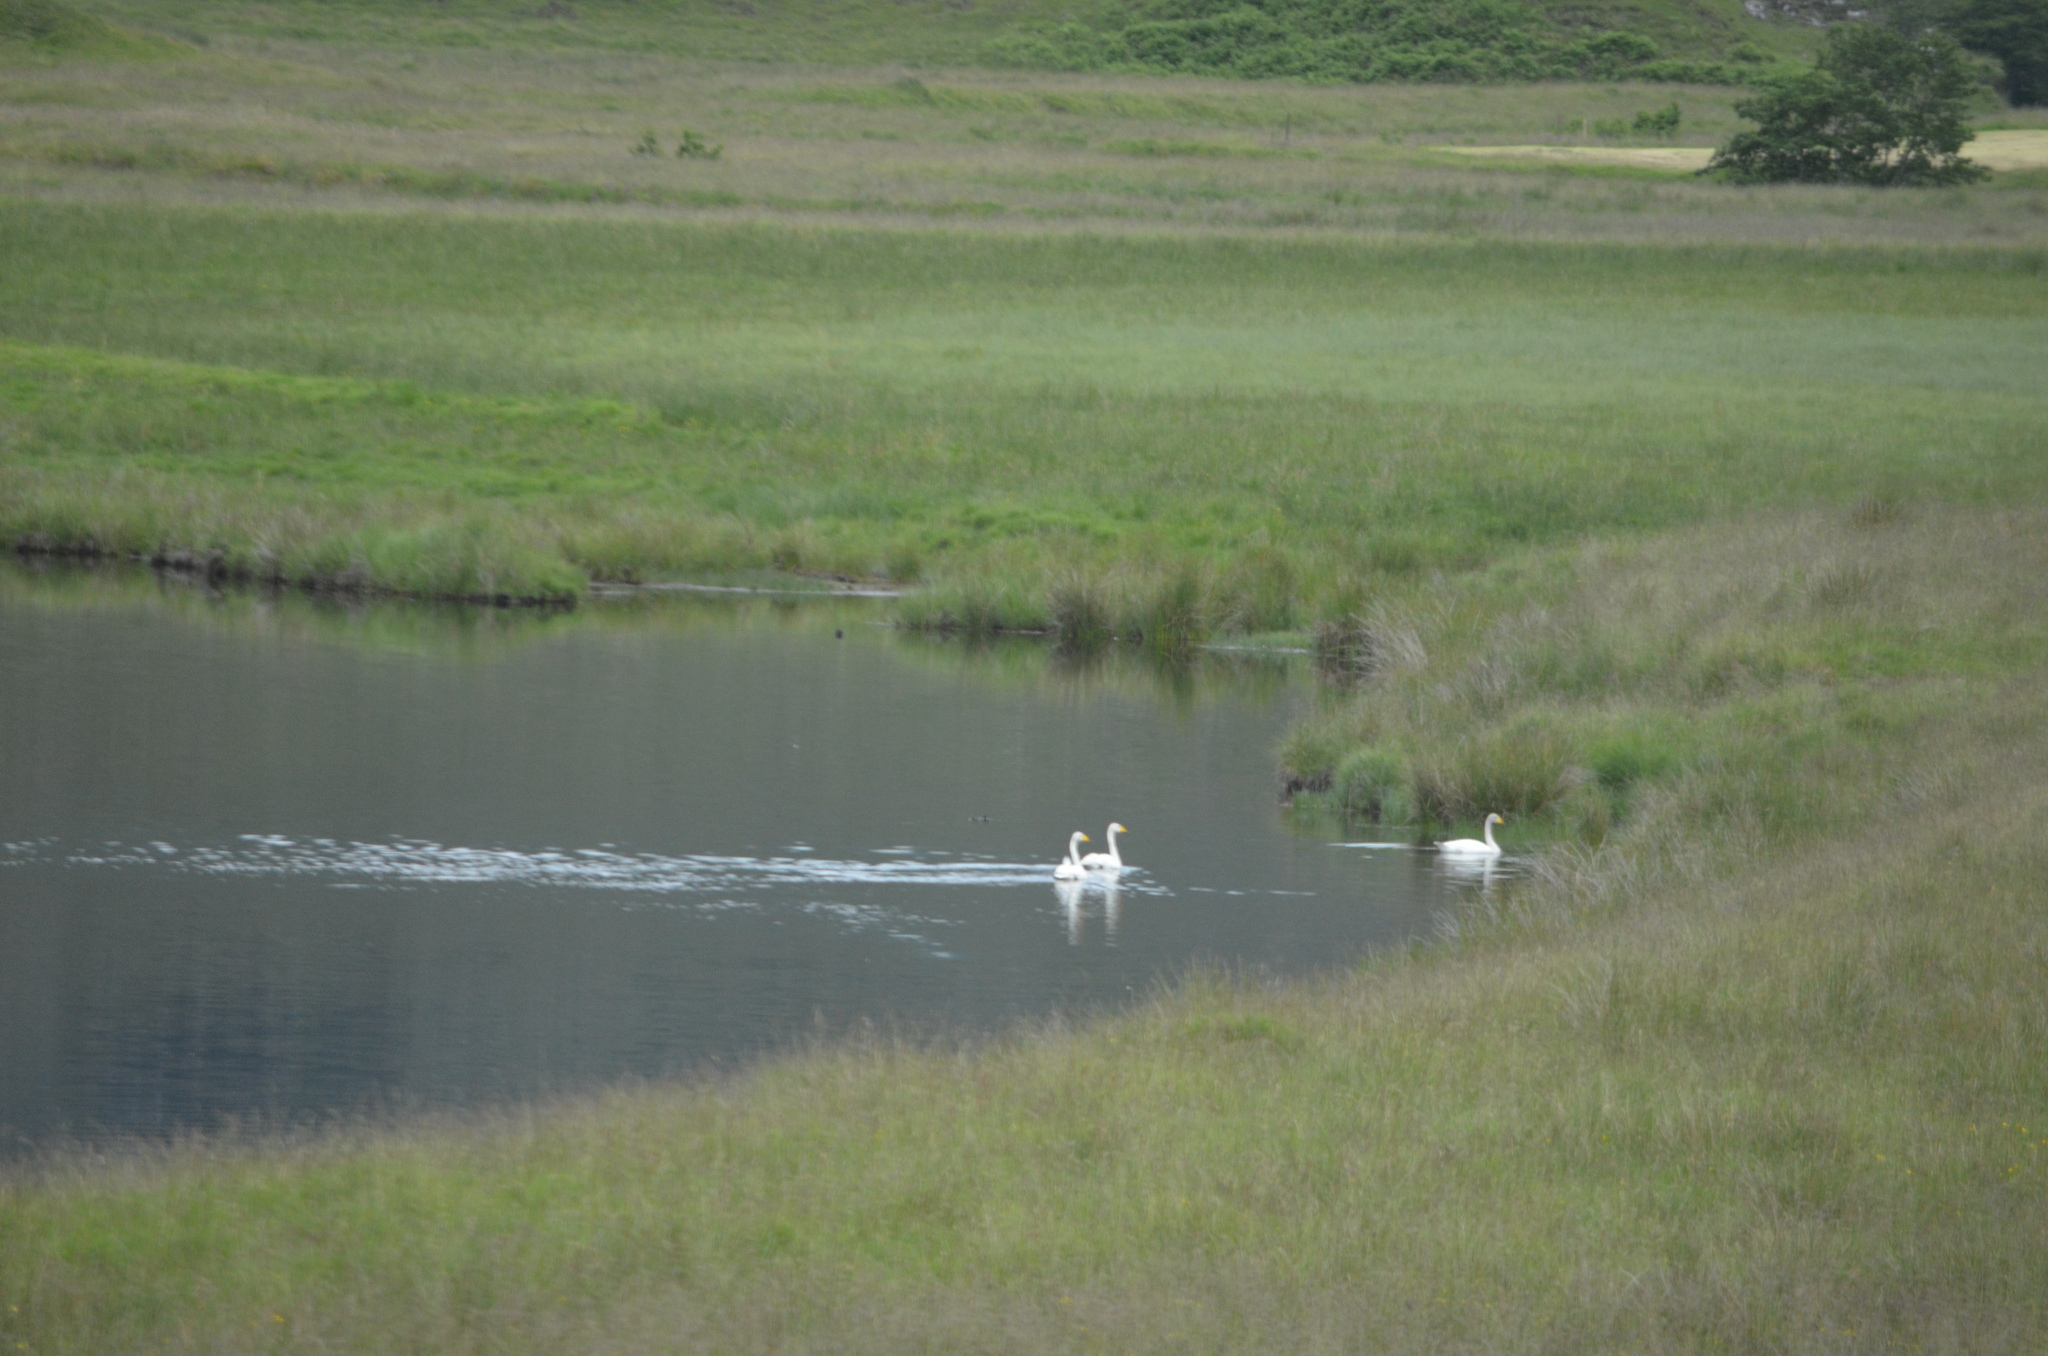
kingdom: Animalia
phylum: Chordata
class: Aves
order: Anseriformes
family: Anatidae
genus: Cygnus
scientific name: Cygnus cygnus
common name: Whooper swan
